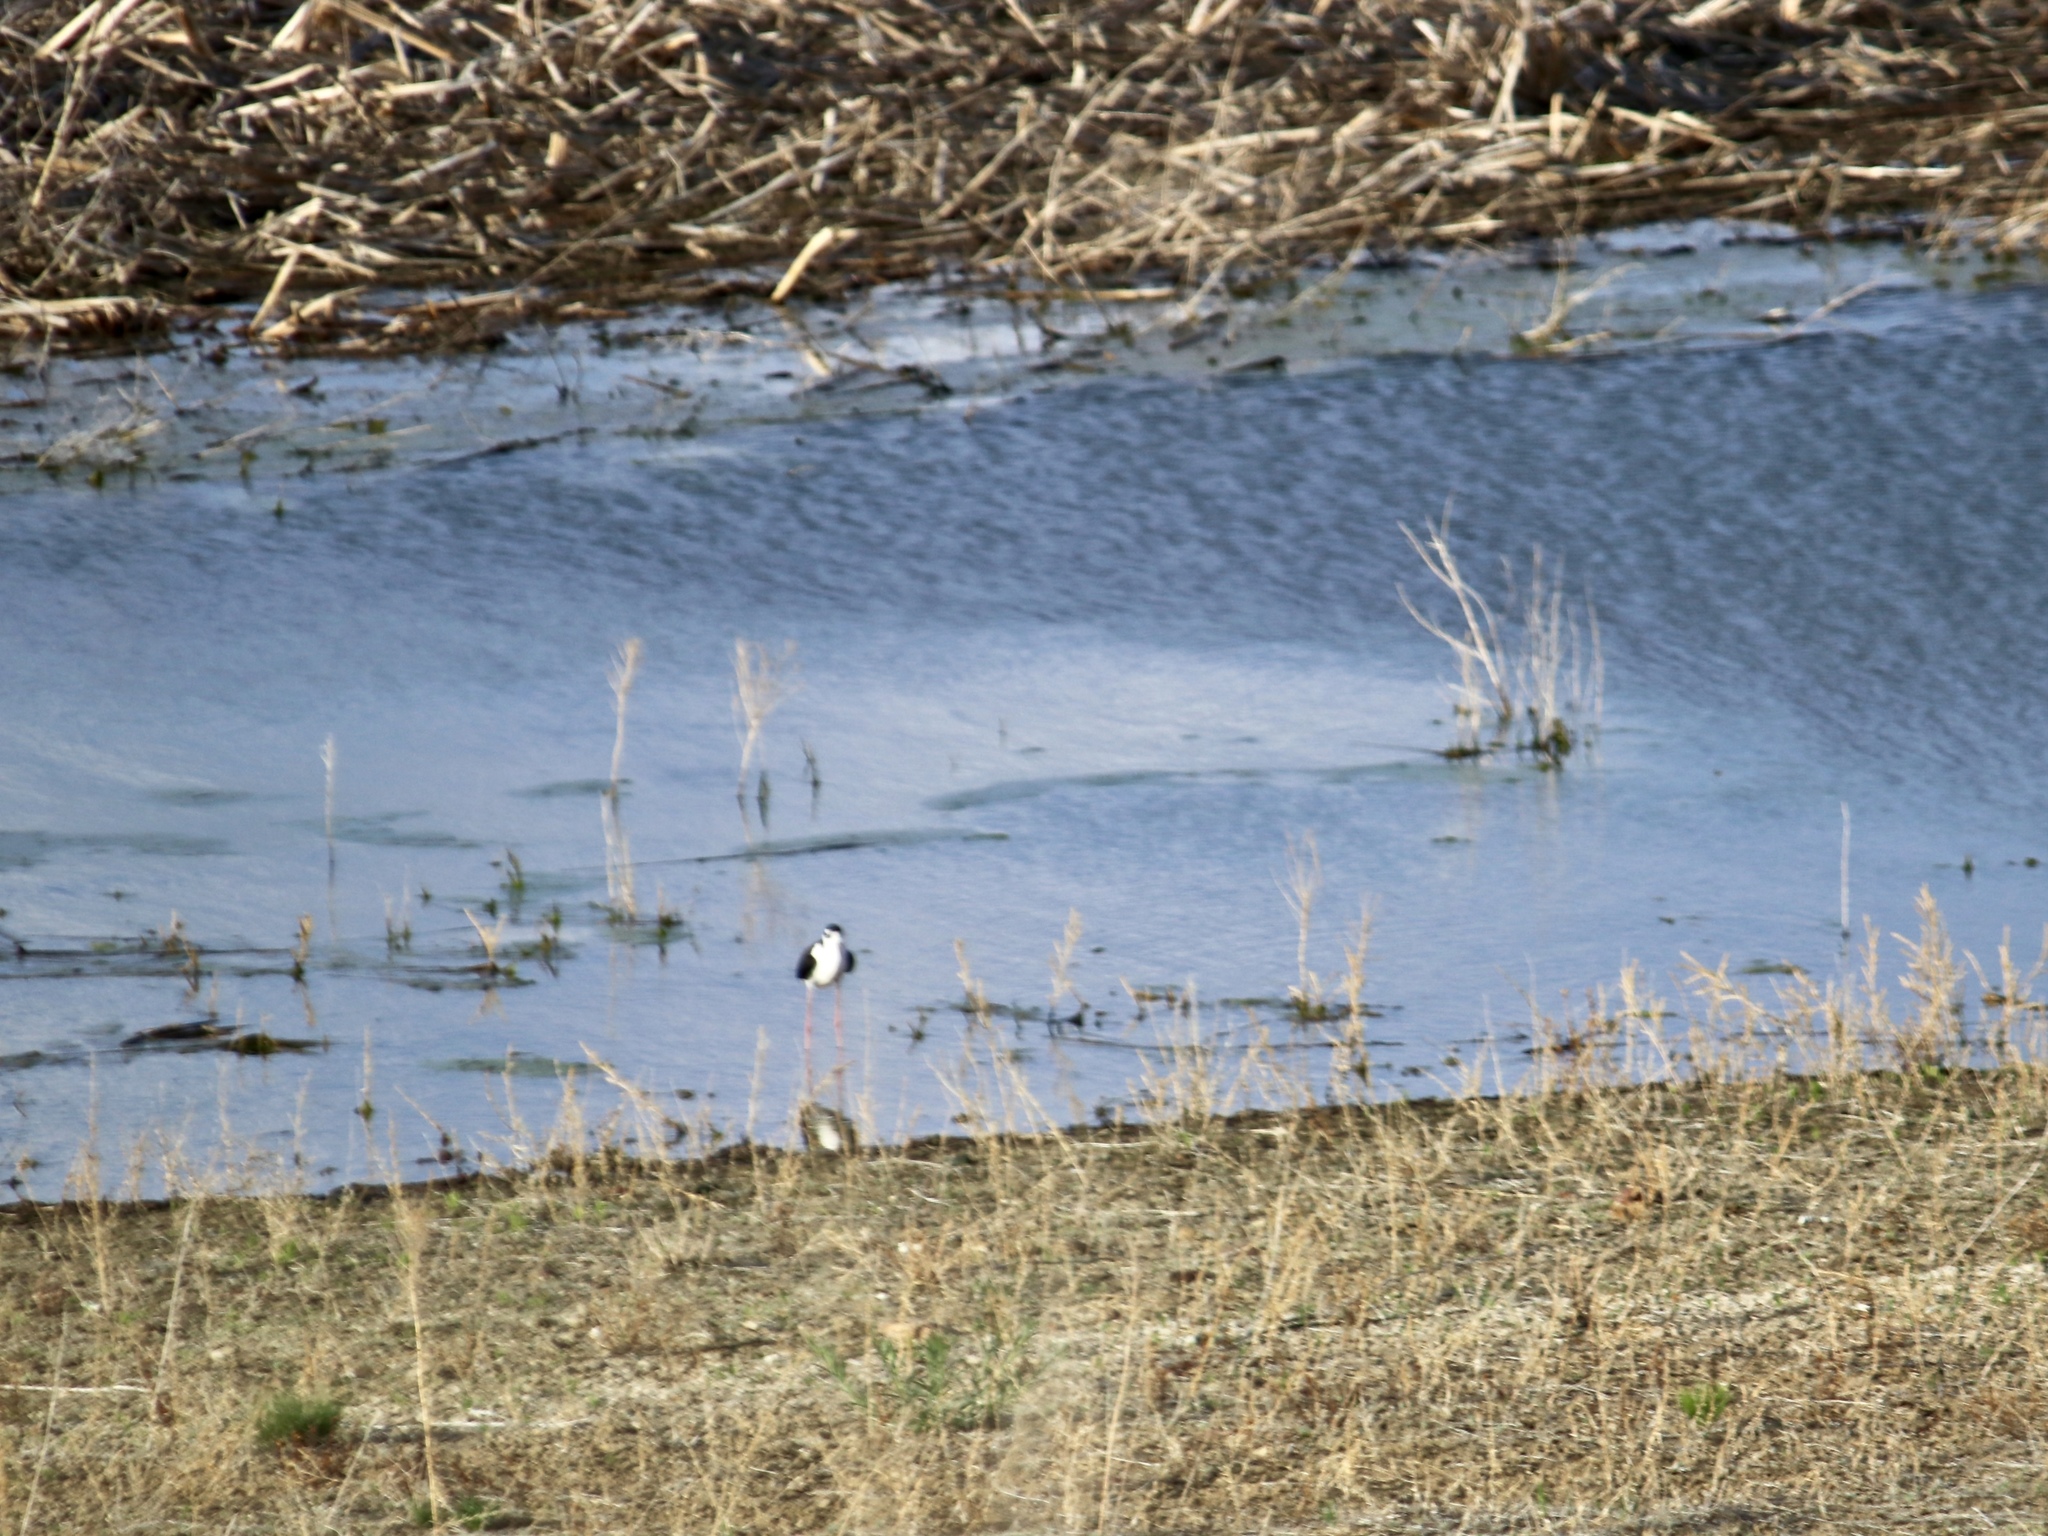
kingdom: Animalia
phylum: Chordata
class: Aves
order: Charadriiformes
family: Recurvirostridae
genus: Himantopus
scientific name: Himantopus mexicanus
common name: Black-necked stilt
